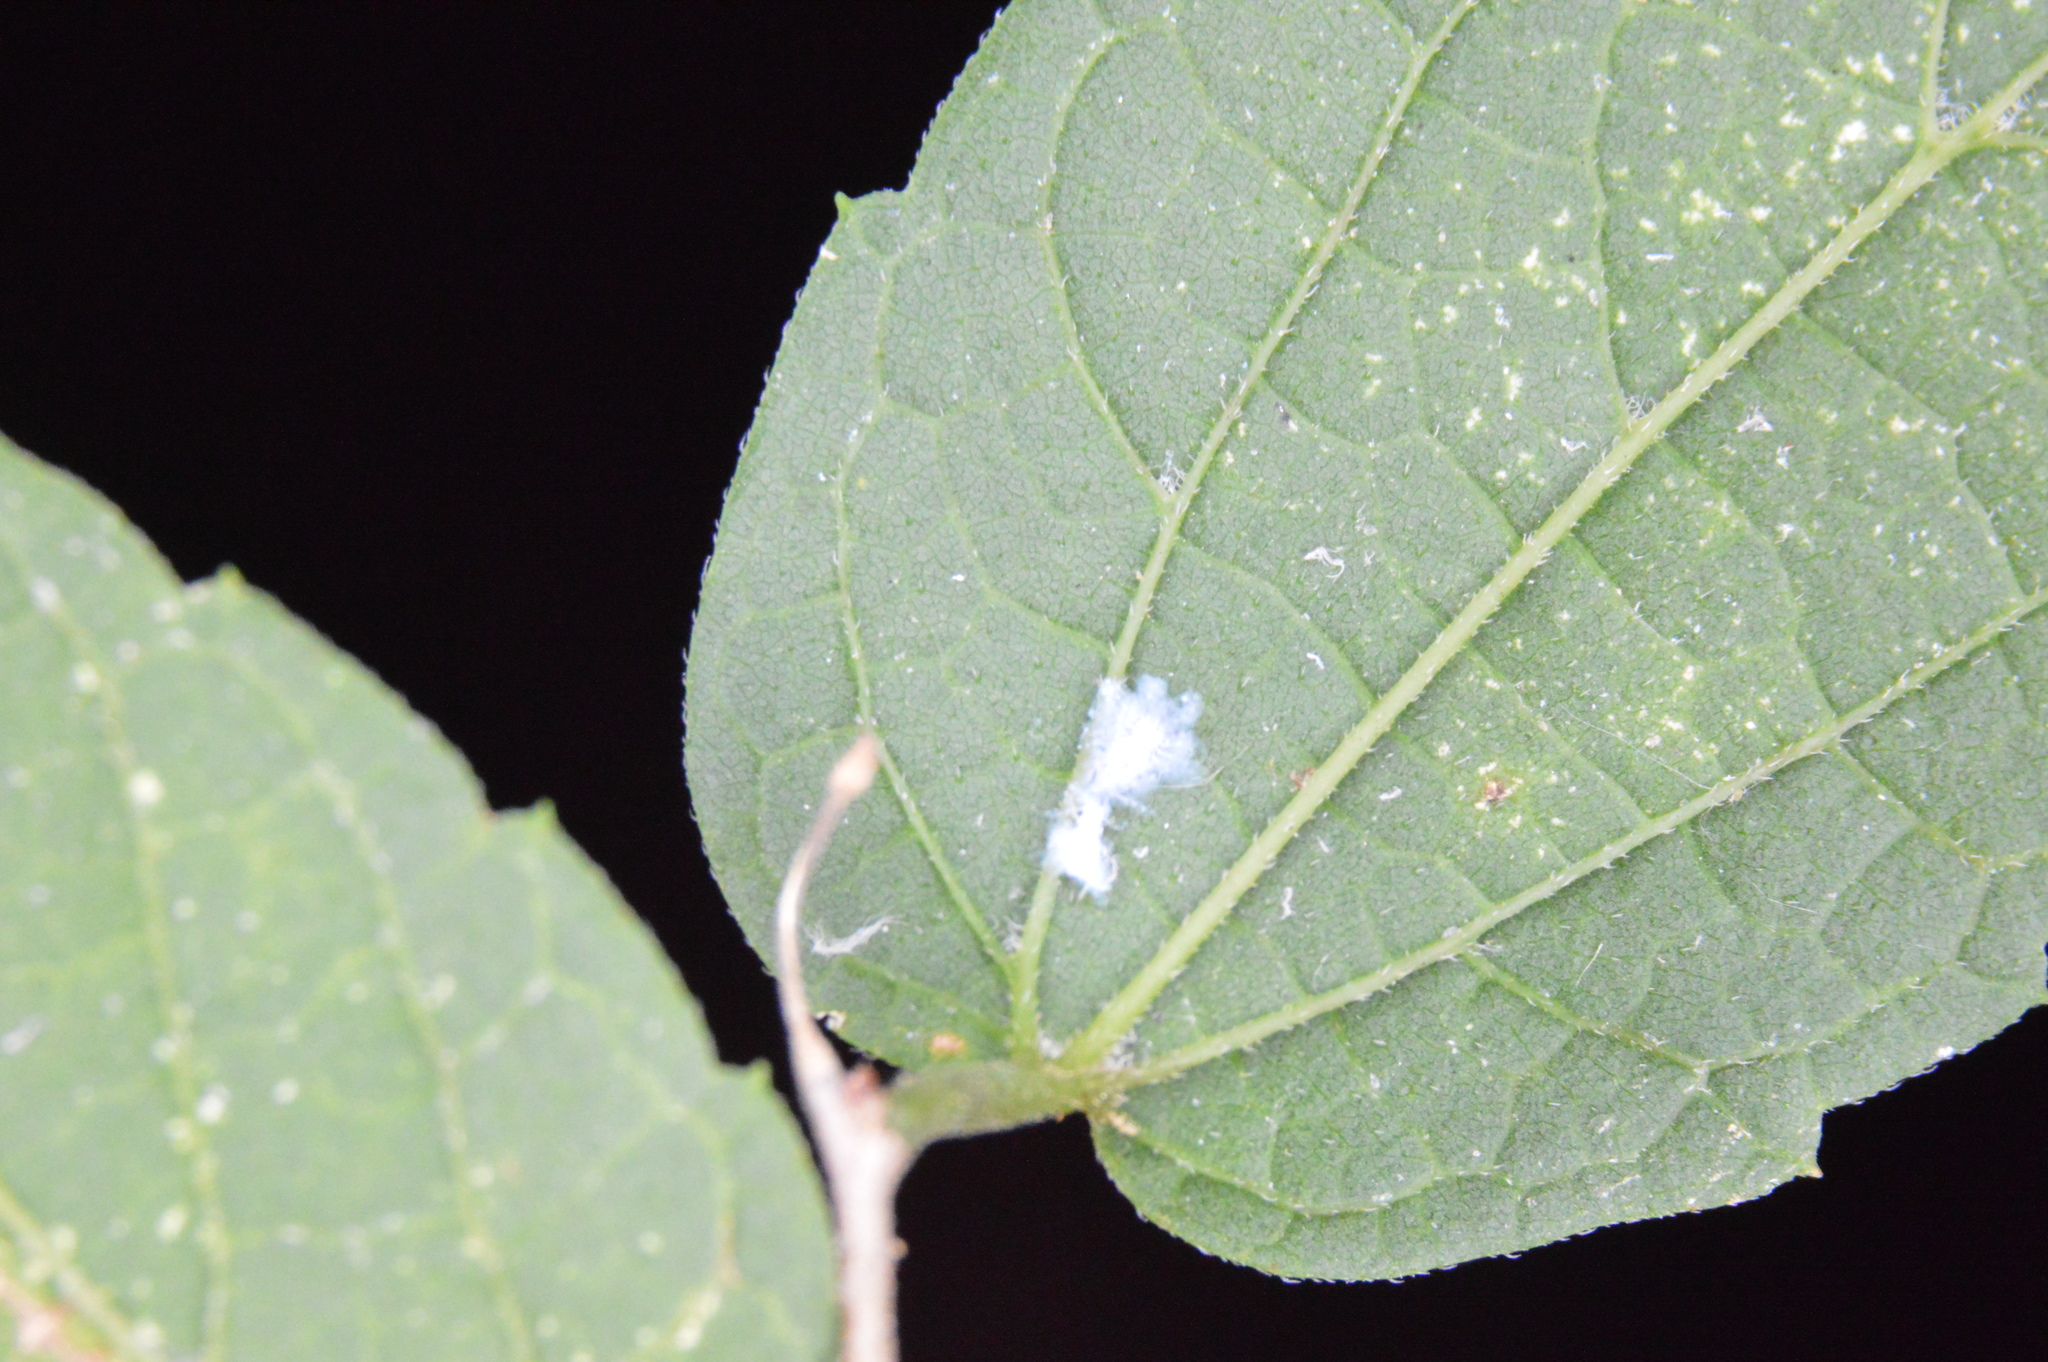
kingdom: Animalia
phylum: Arthropoda
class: Insecta
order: Hemiptera
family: Aphididae
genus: Shivaphis
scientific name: Shivaphis celti
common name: Asian wooly hackberry aphid
